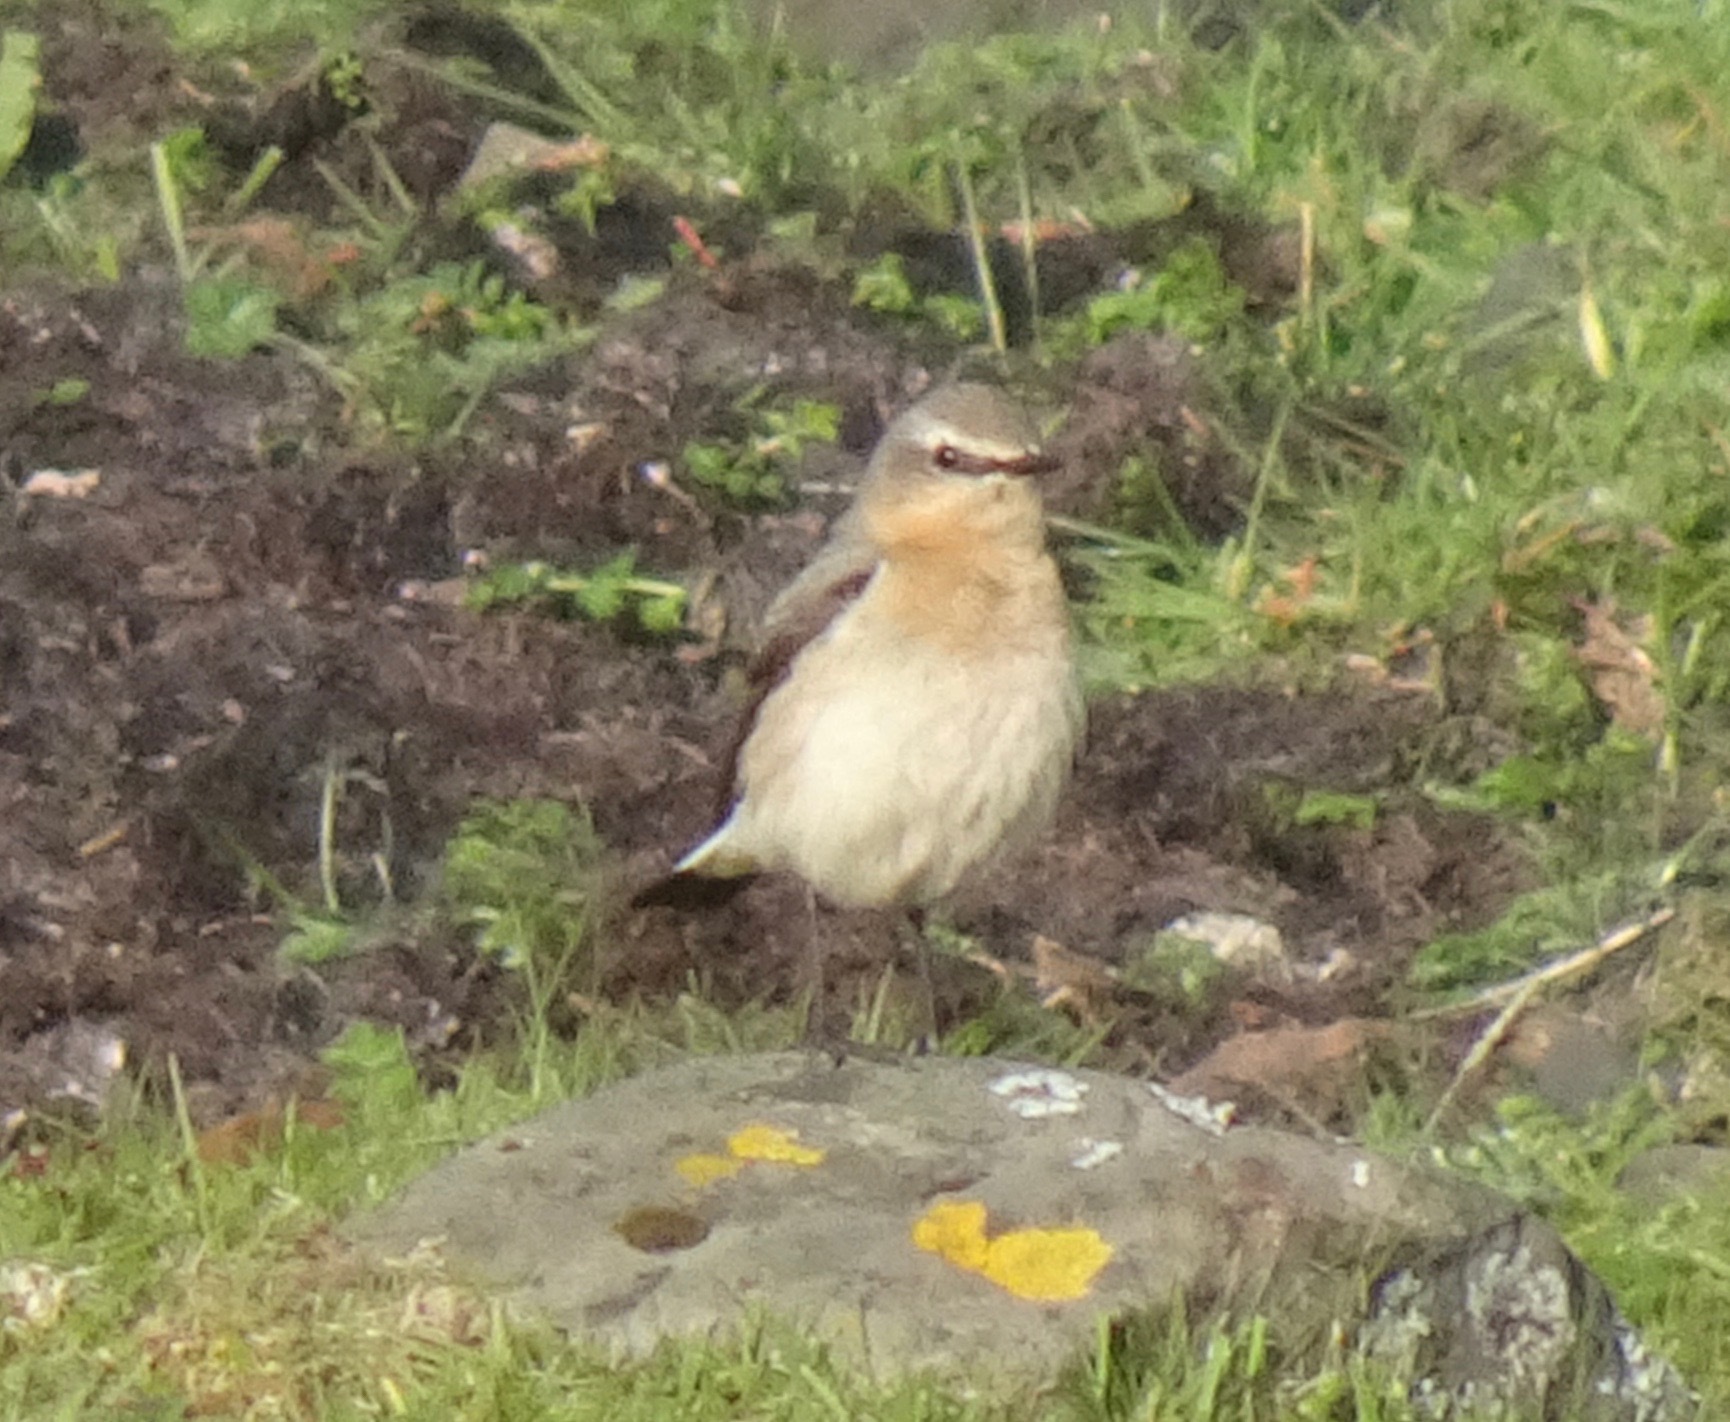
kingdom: Animalia
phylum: Chordata
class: Aves
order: Passeriformes
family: Muscicapidae
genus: Oenanthe
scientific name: Oenanthe oenanthe
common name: Northern wheatear
